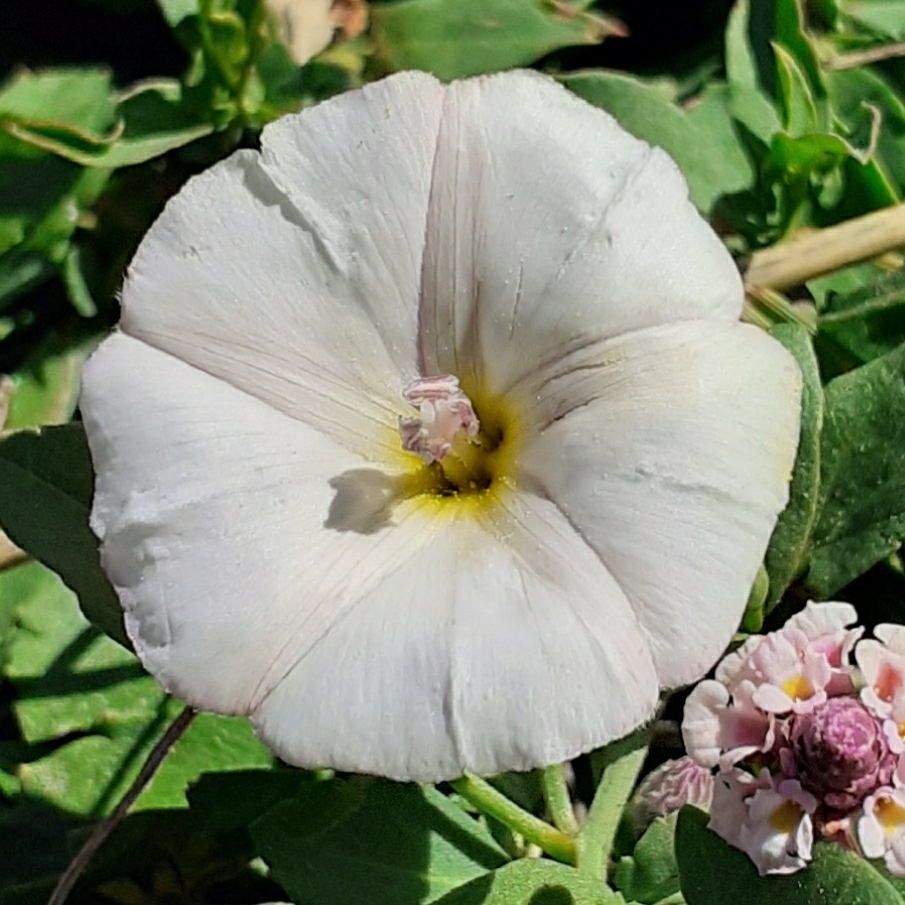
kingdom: Plantae
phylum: Tracheophyta
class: Magnoliopsida
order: Solanales
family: Convolvulaceae
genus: Convolvulus
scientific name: Convolvulus arvensis
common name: Field bindweed
